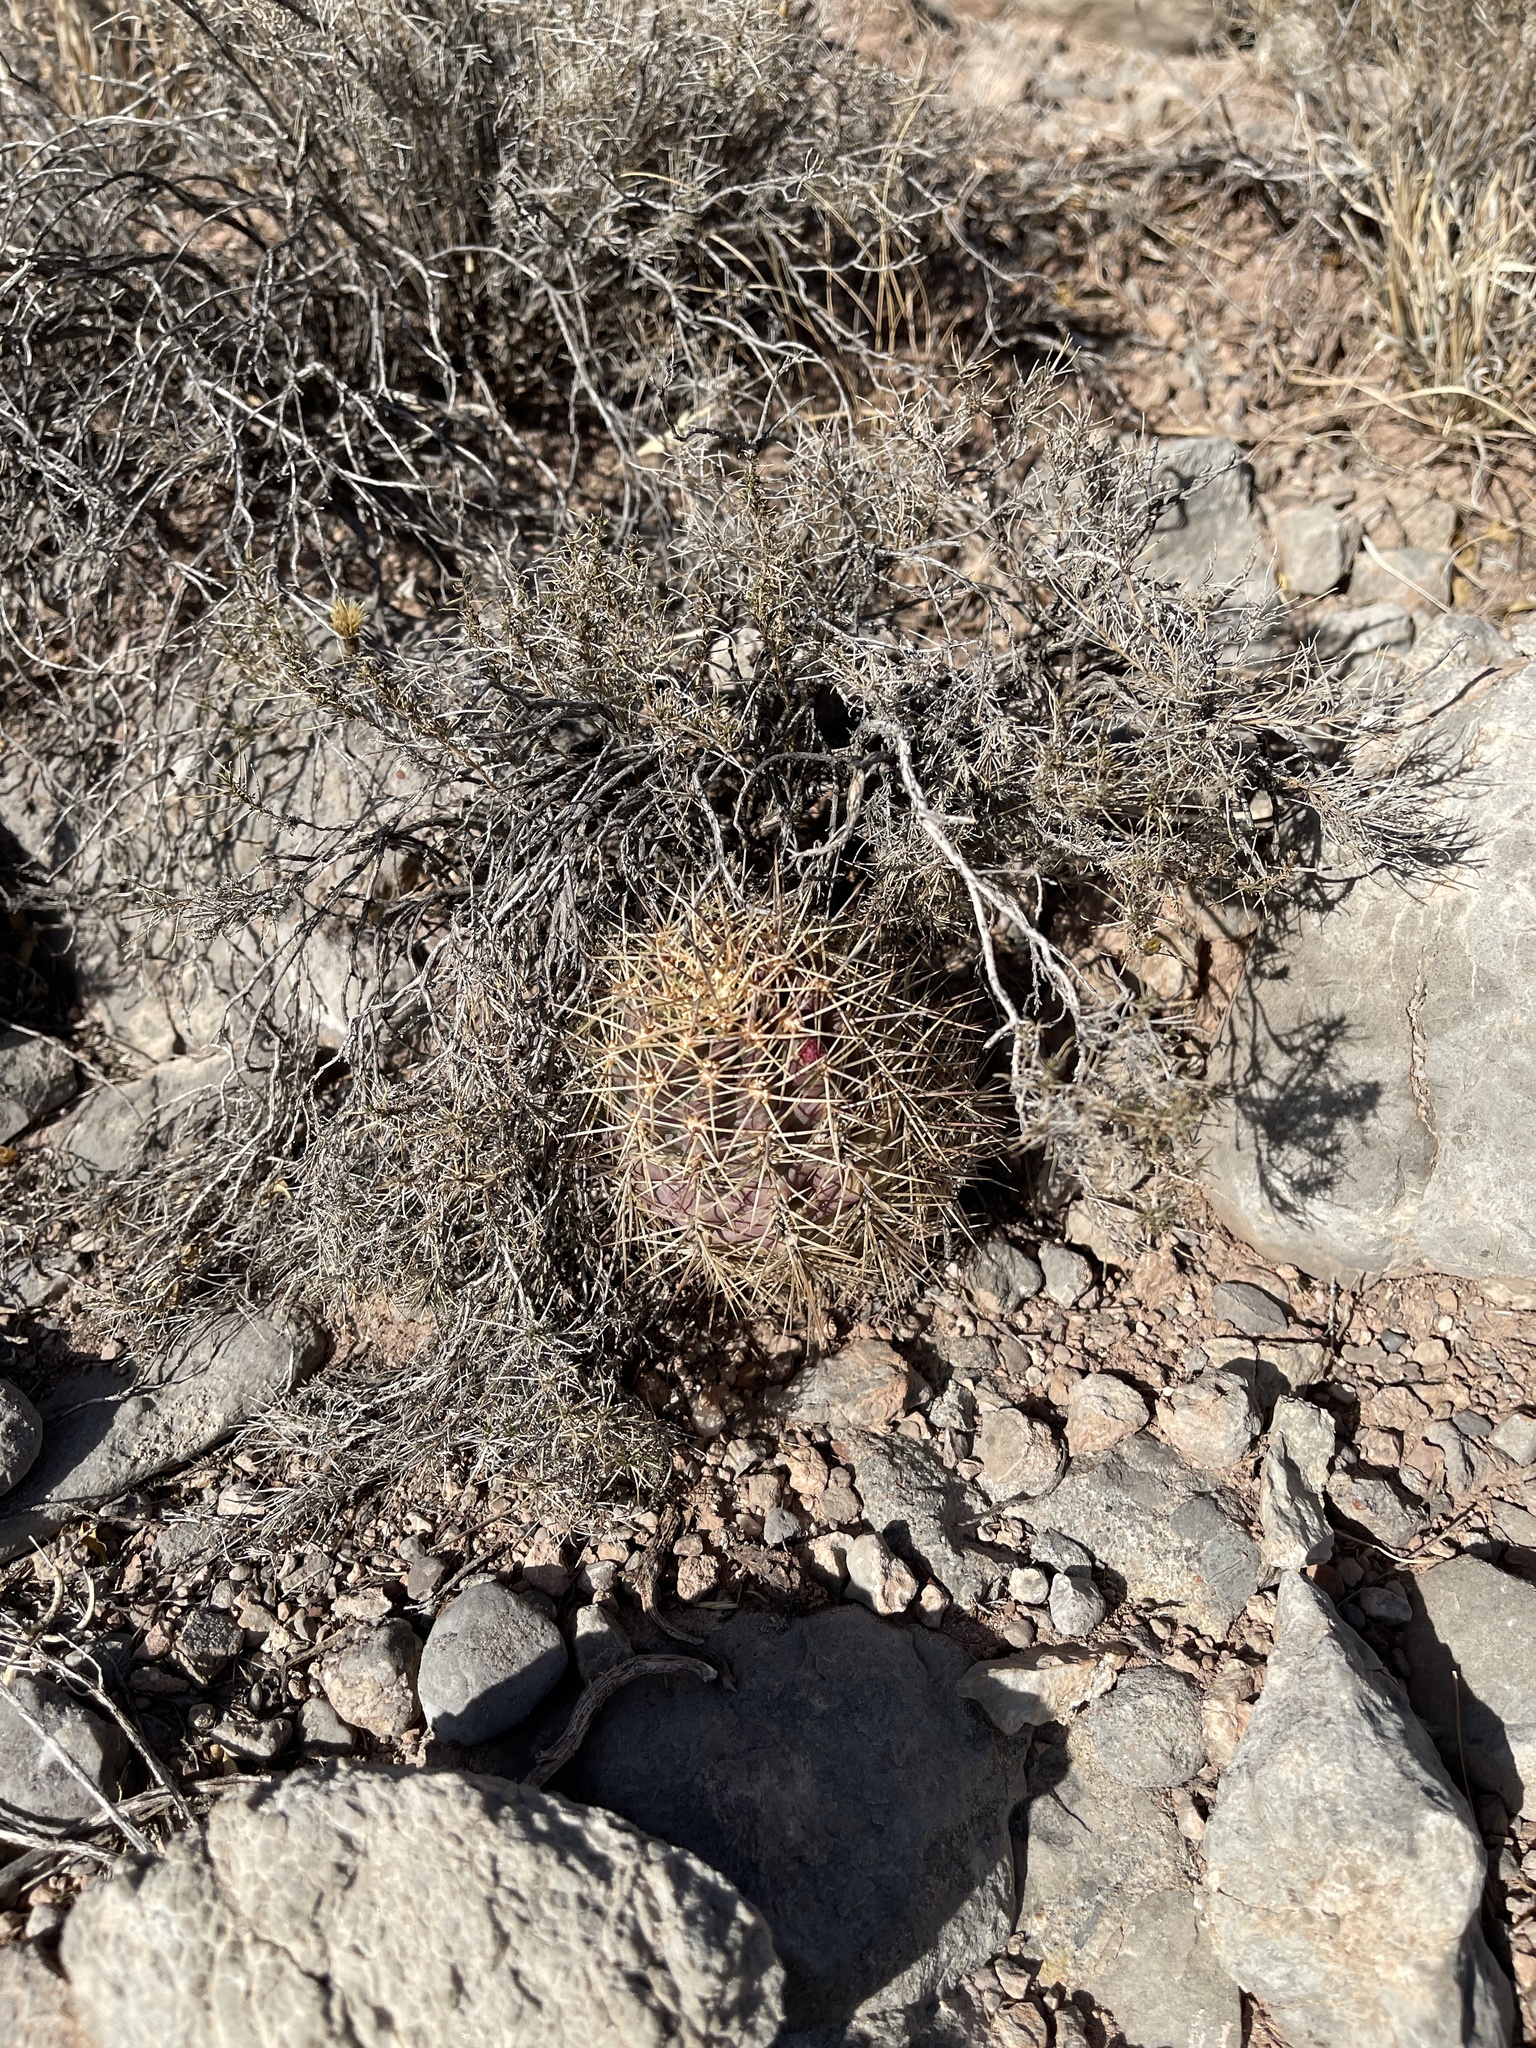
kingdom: Plantae
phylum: Tracheophyta
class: Magnoliopsida
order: Caryophyllales
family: Cactaceae
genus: Echinocereus
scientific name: Echinocereus coccineus
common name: Scarlet hedgehog cactus
